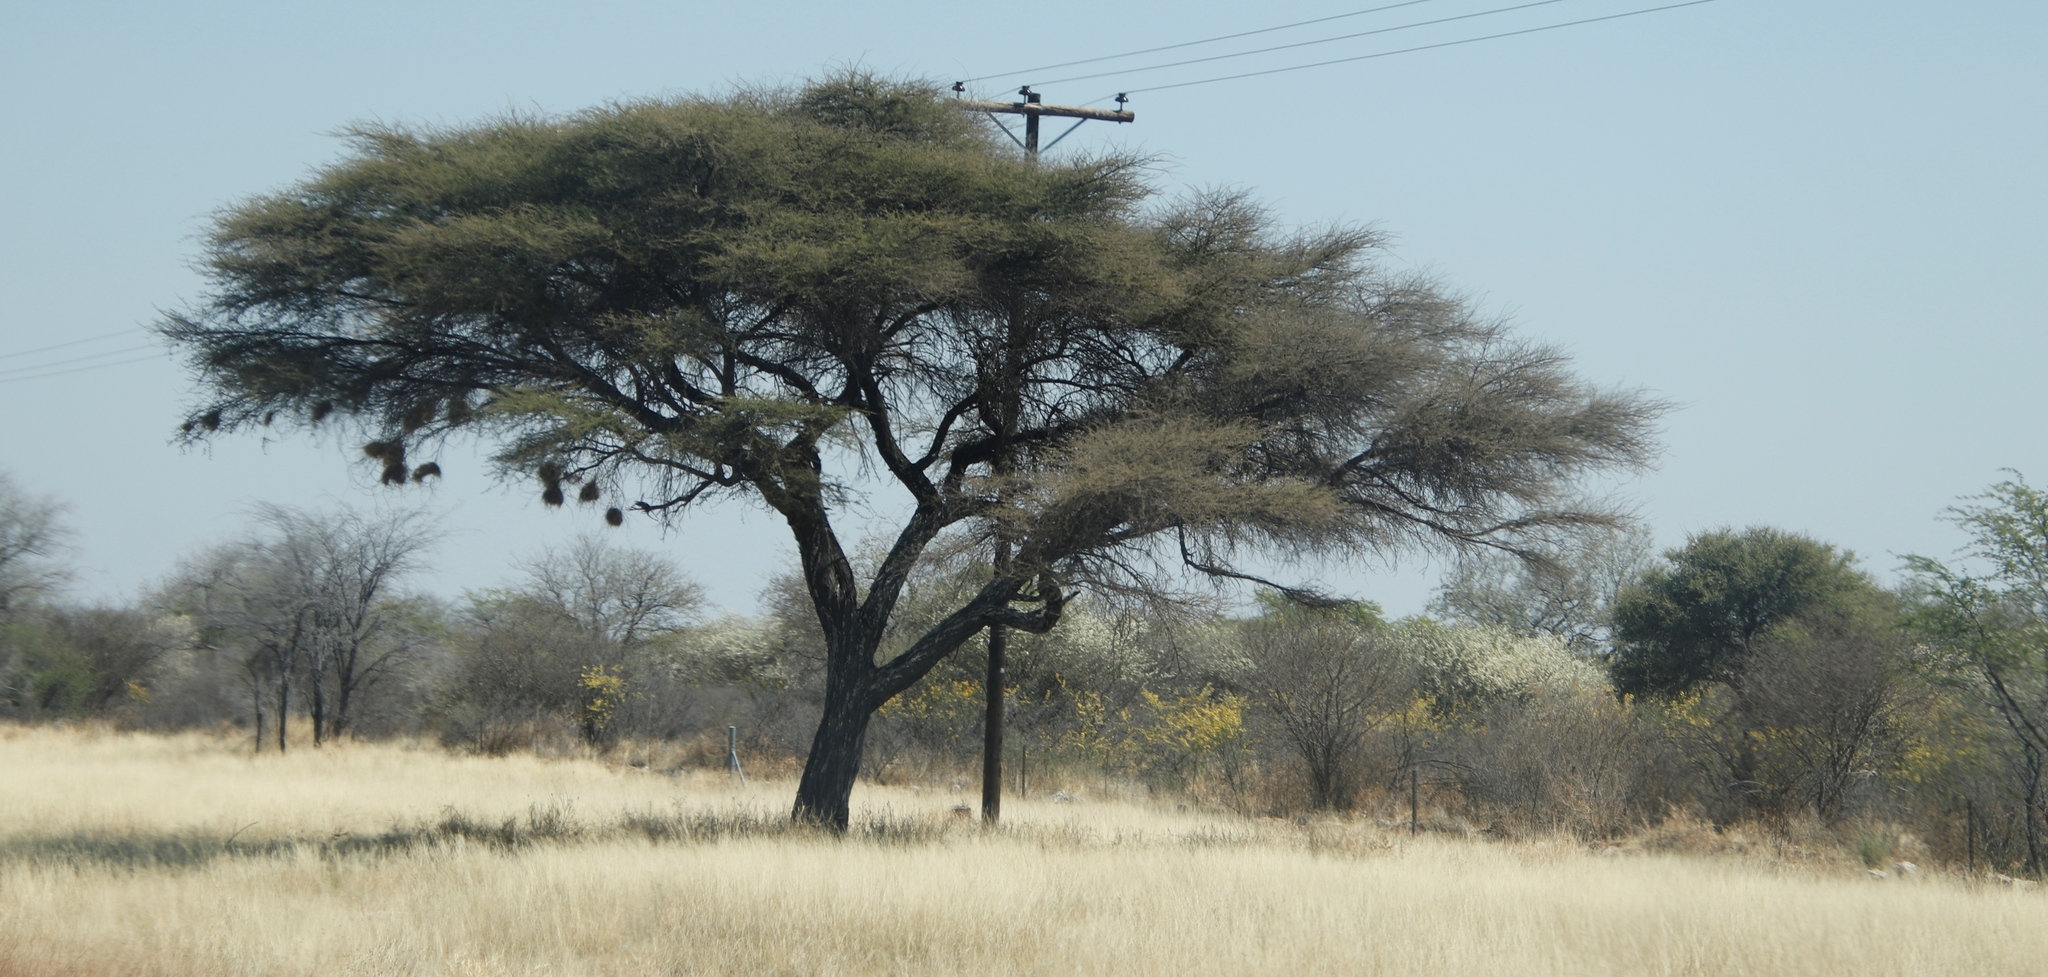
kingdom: Animalia
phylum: Chordata
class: Aves
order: Passeriformes
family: Passeridae
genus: Plocepasser
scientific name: Plocepasser mahali
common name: White-browed sparrow-weaver
